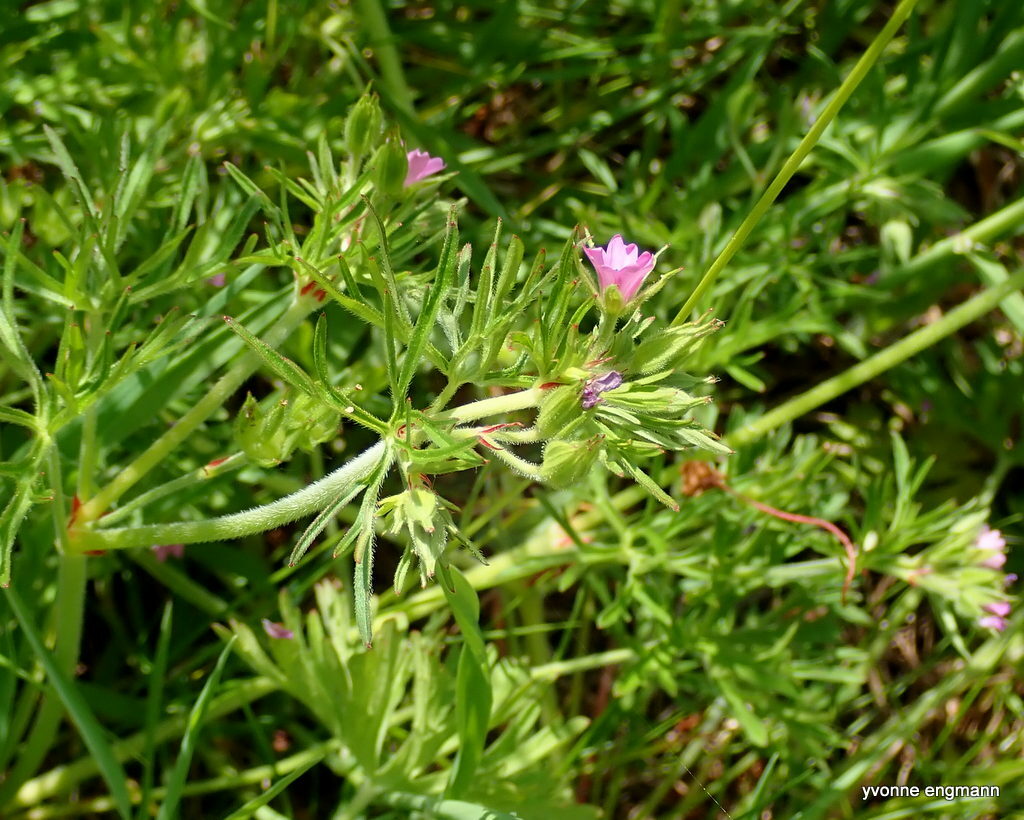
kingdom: Plantae
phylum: Tracheophyta
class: Magnoliopsida
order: Geraniales
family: Geraniaceae
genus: Geranium
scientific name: Geranium dissectum
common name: Cut-leaved crane's-bill
